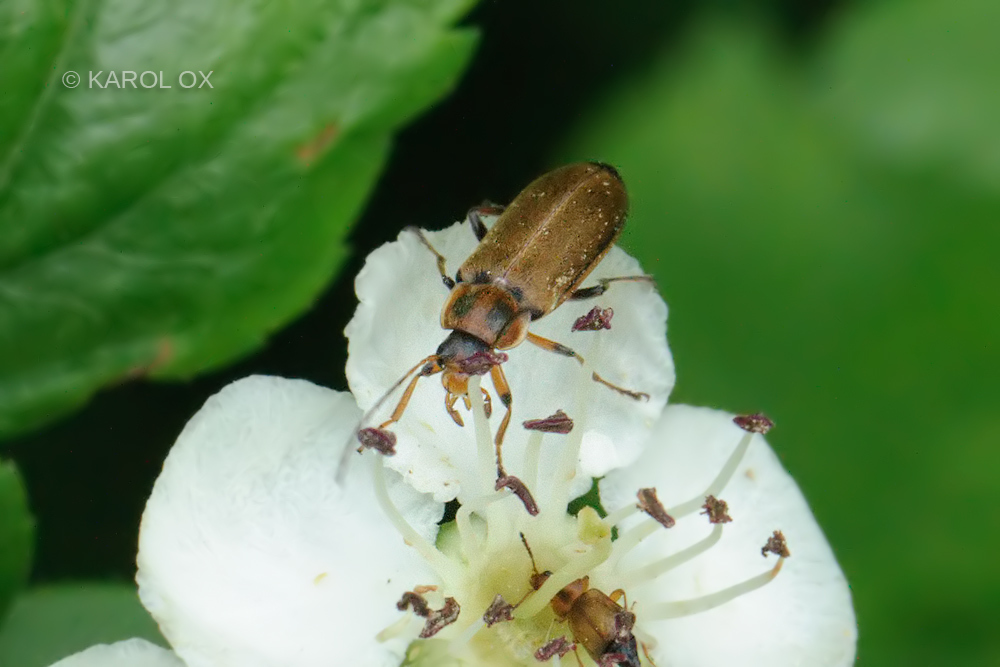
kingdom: Animalia
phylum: Arthropoda
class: Insecta
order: Coleoptera
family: Melandryidae
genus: Osphya
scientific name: Osphya bipunctata
